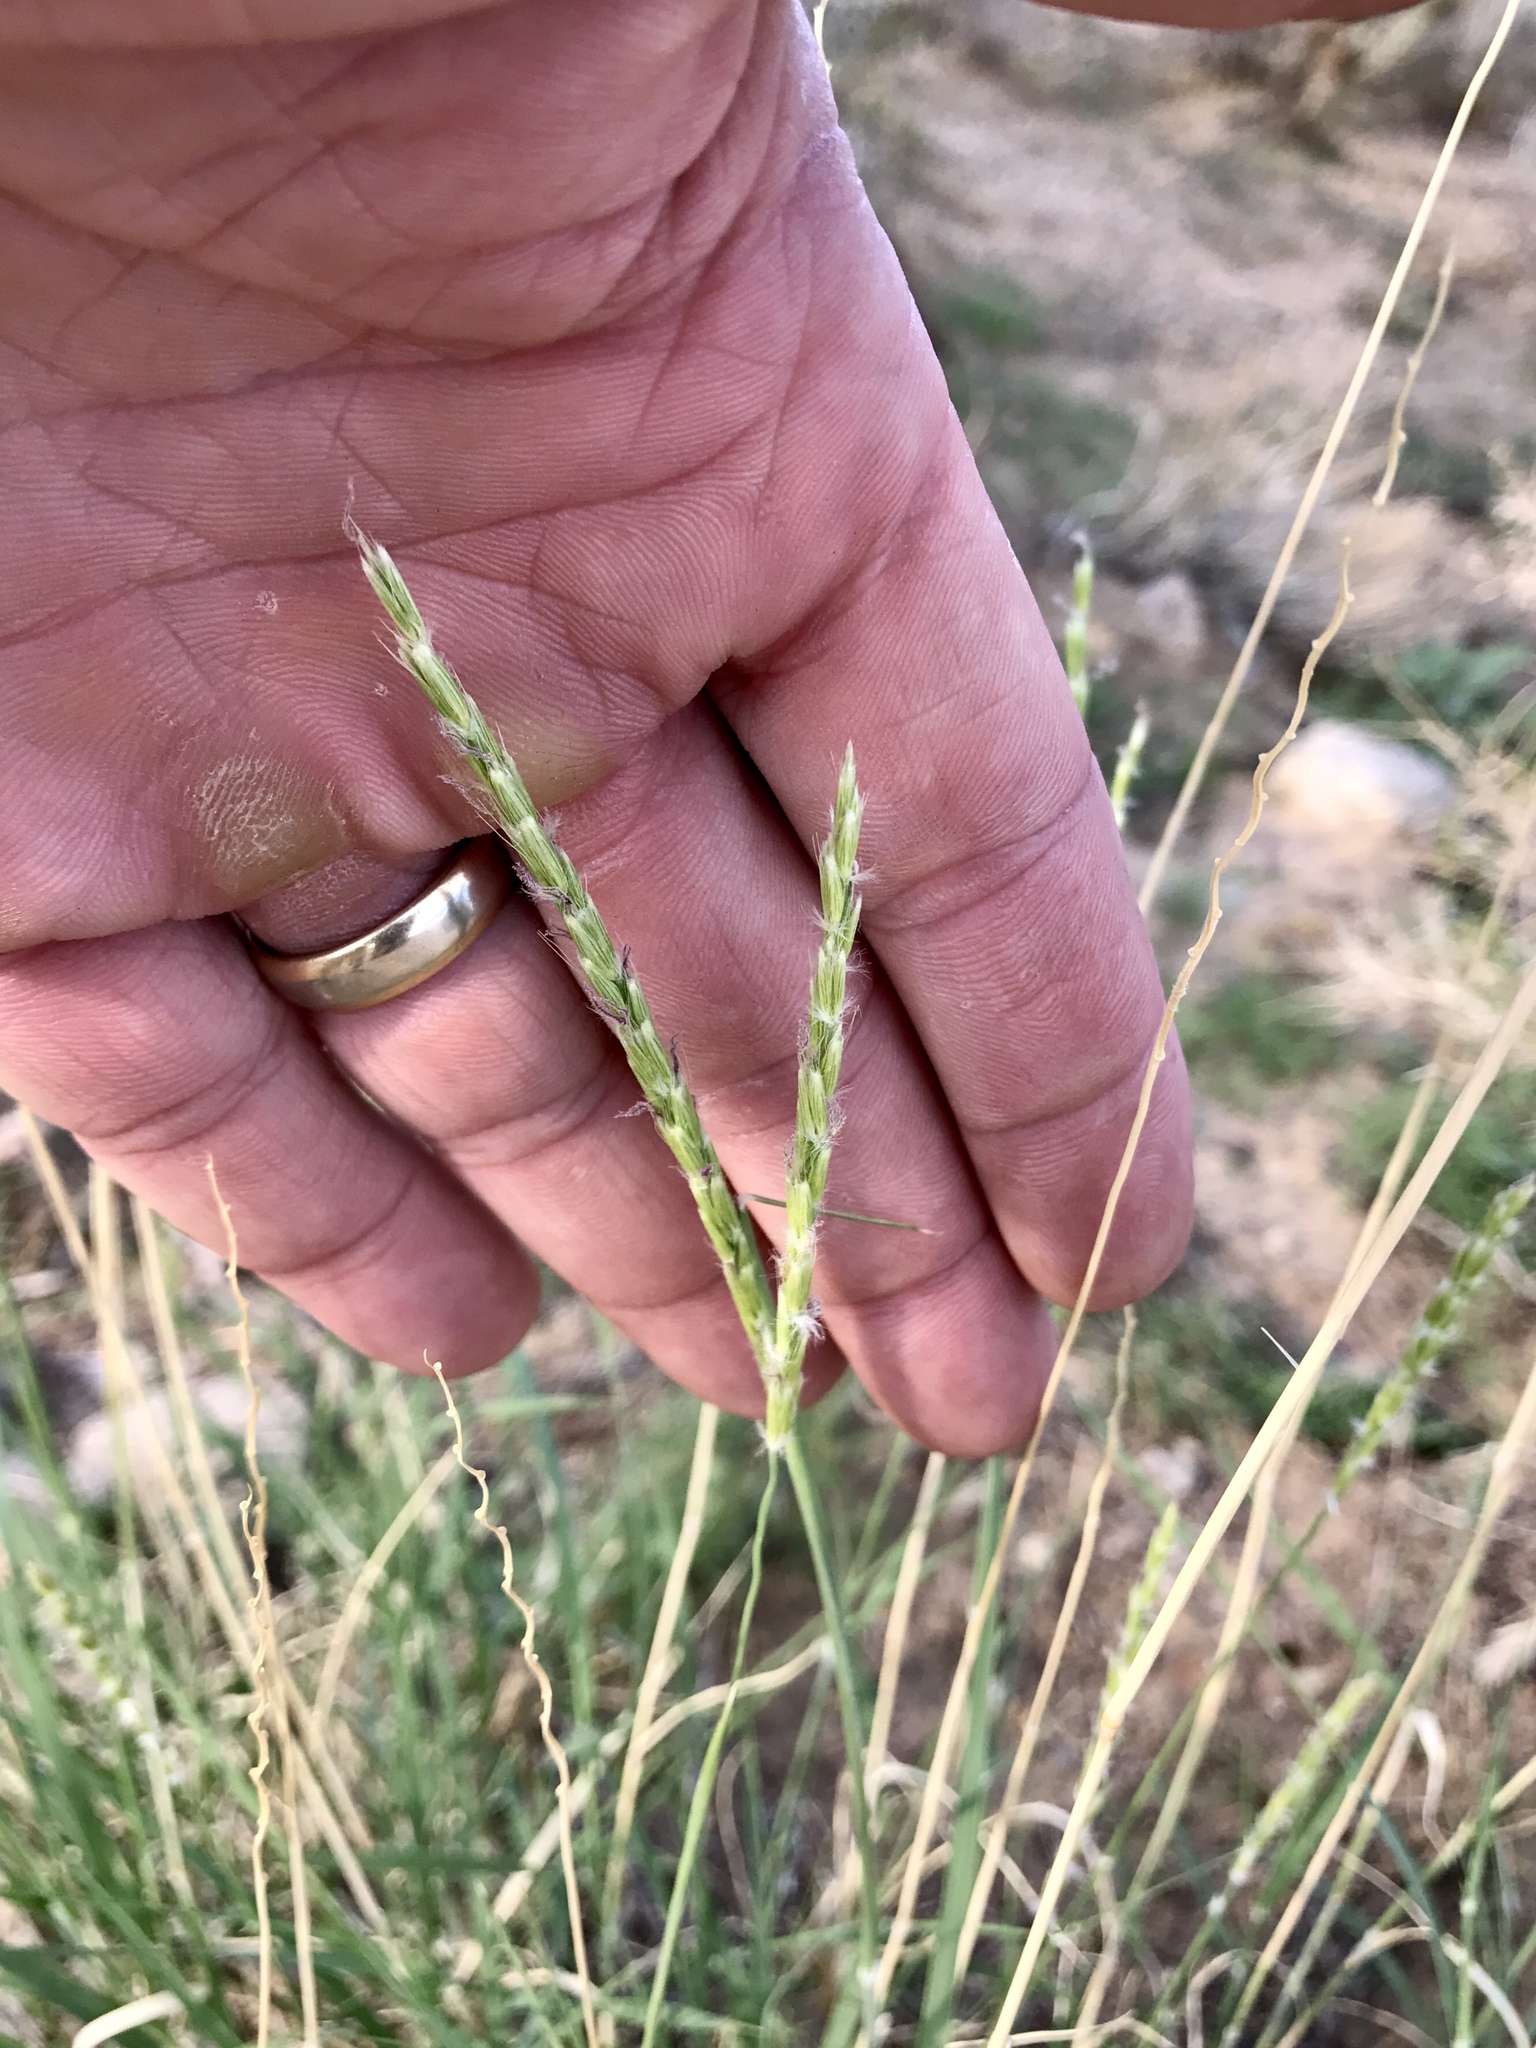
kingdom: Plantae
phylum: Tracheophyta
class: Liliopsida
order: Poales
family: Poaceae
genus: Hilaria
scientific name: Hilaria rigida
